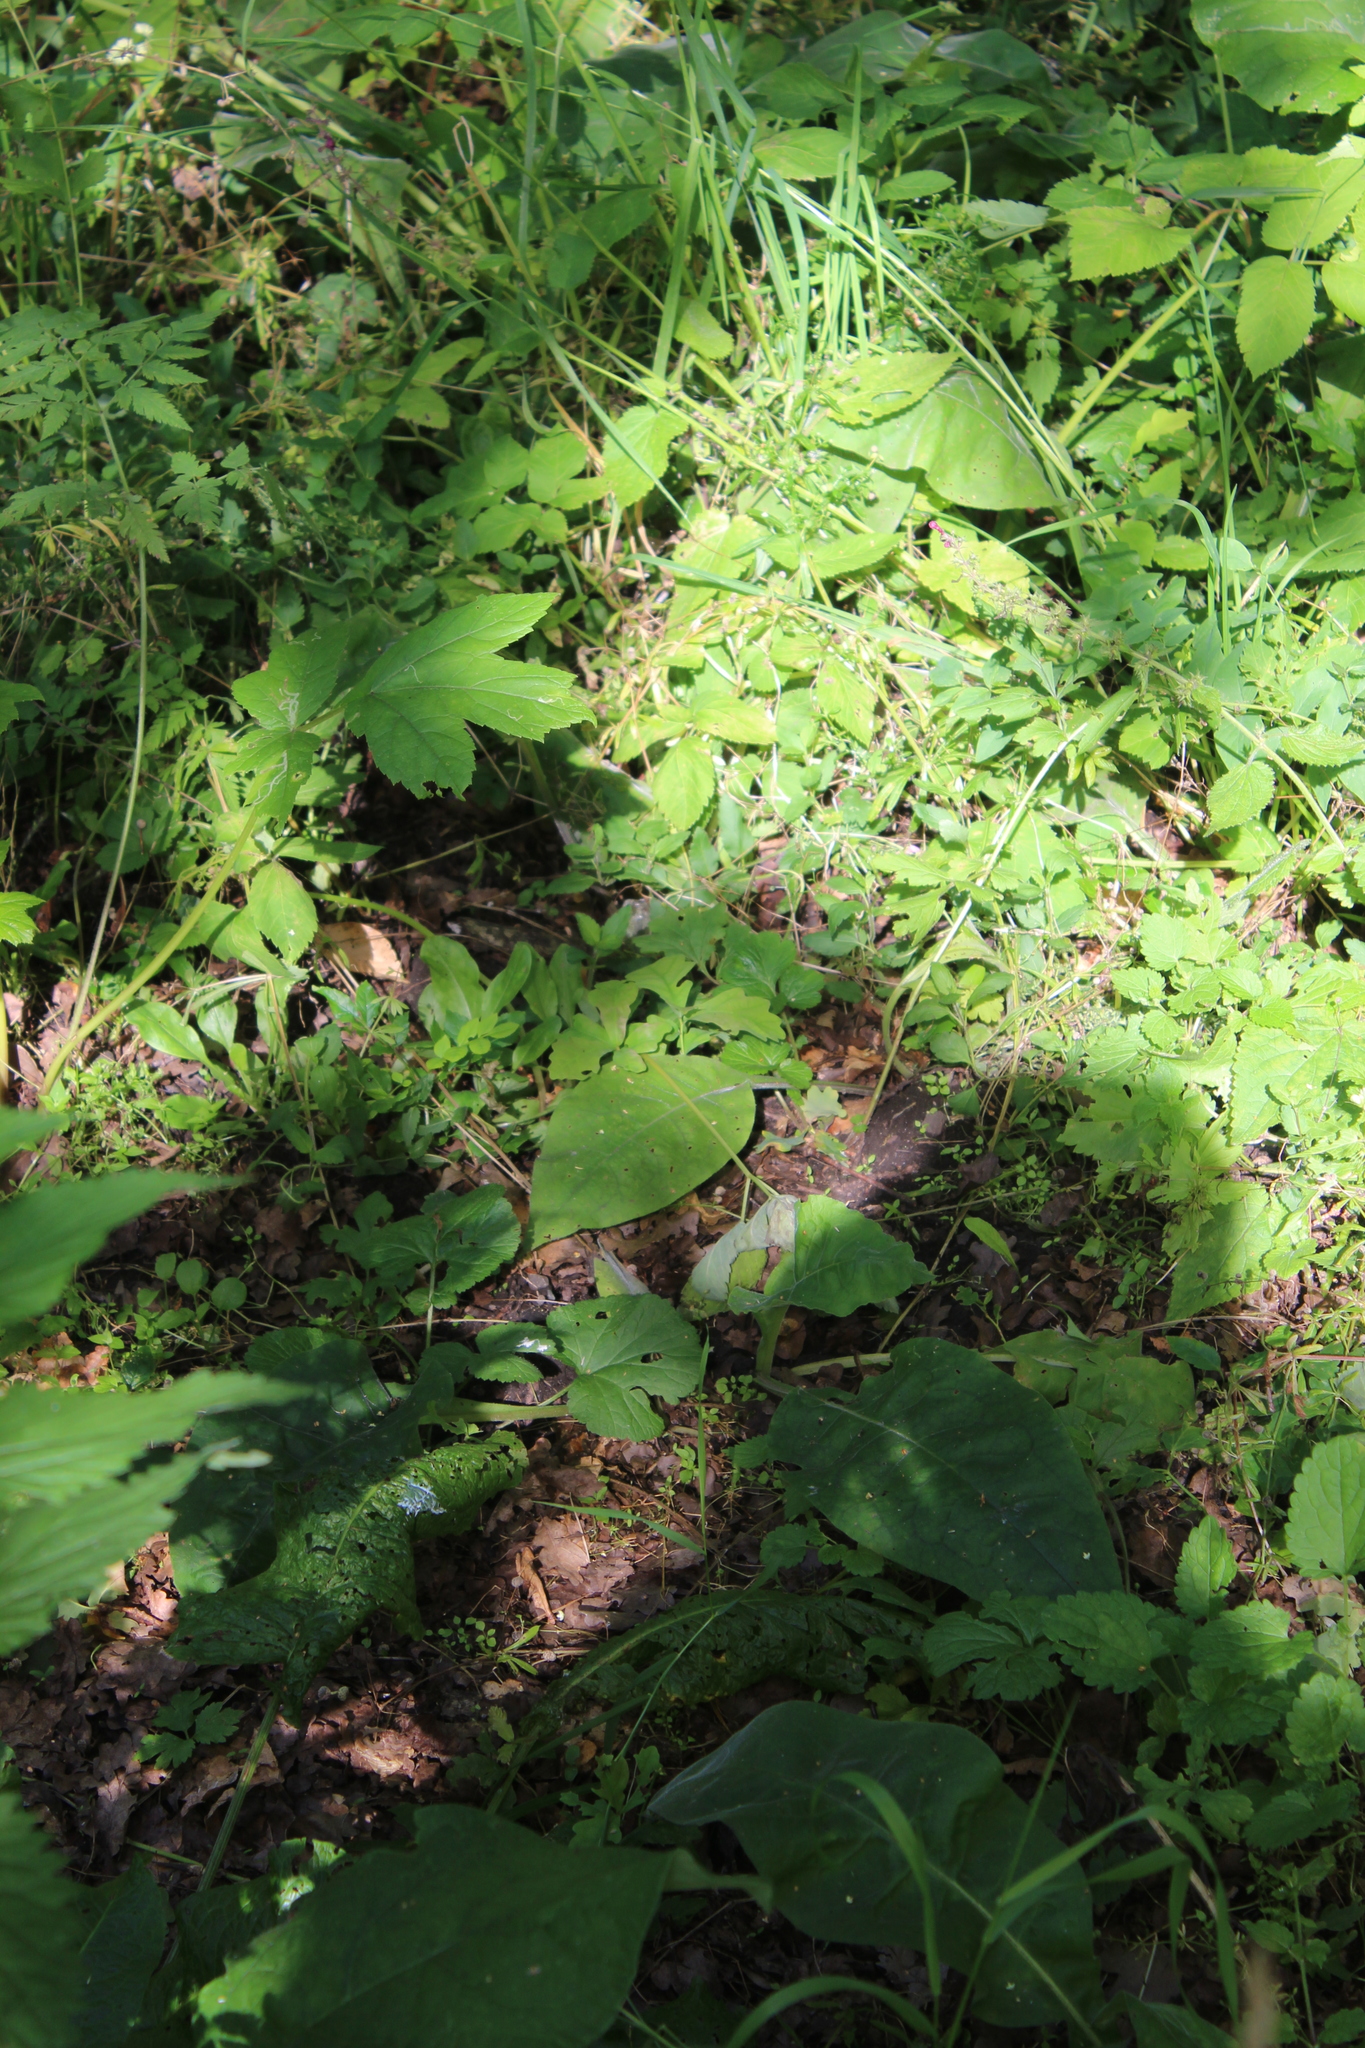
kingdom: Plantae
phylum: Tracheophyta
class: Magnoliopsida
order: Boraginales
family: Boraginaceae
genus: Pulmonaria
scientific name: Pulmonaria mollis
